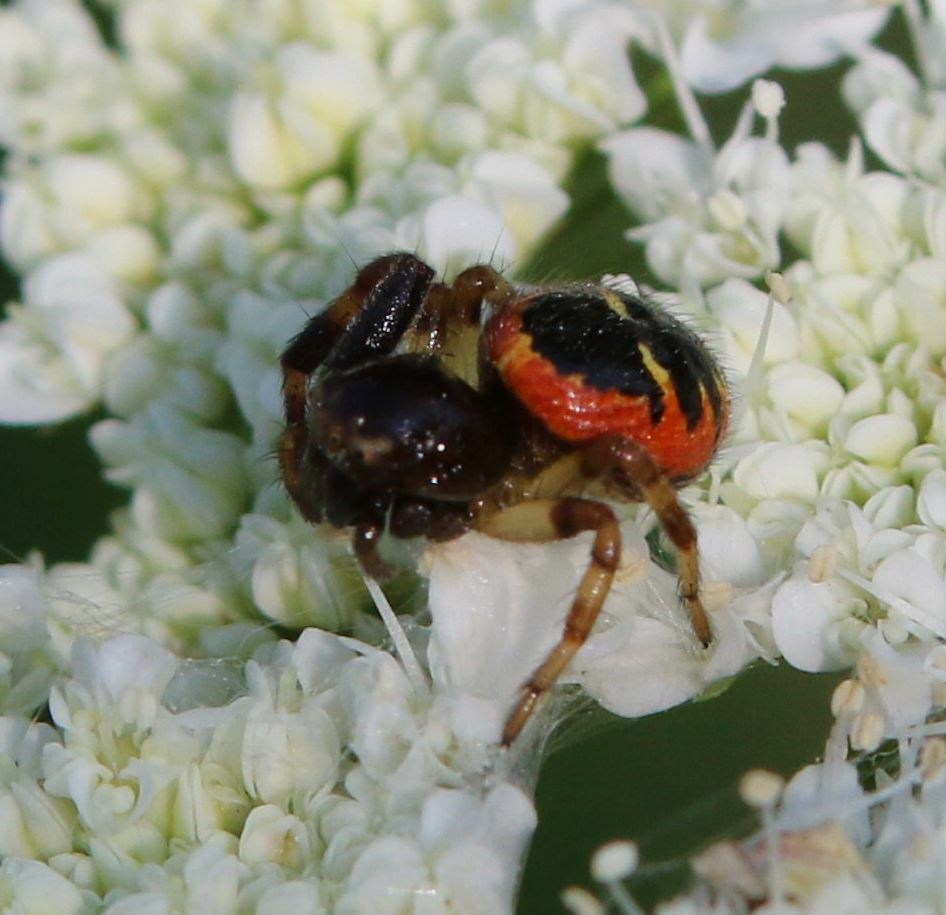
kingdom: Animalia
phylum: Arthropoda
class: Arachnida
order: Araneae
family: Thomisidae
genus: Synema
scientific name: Synema globosum
